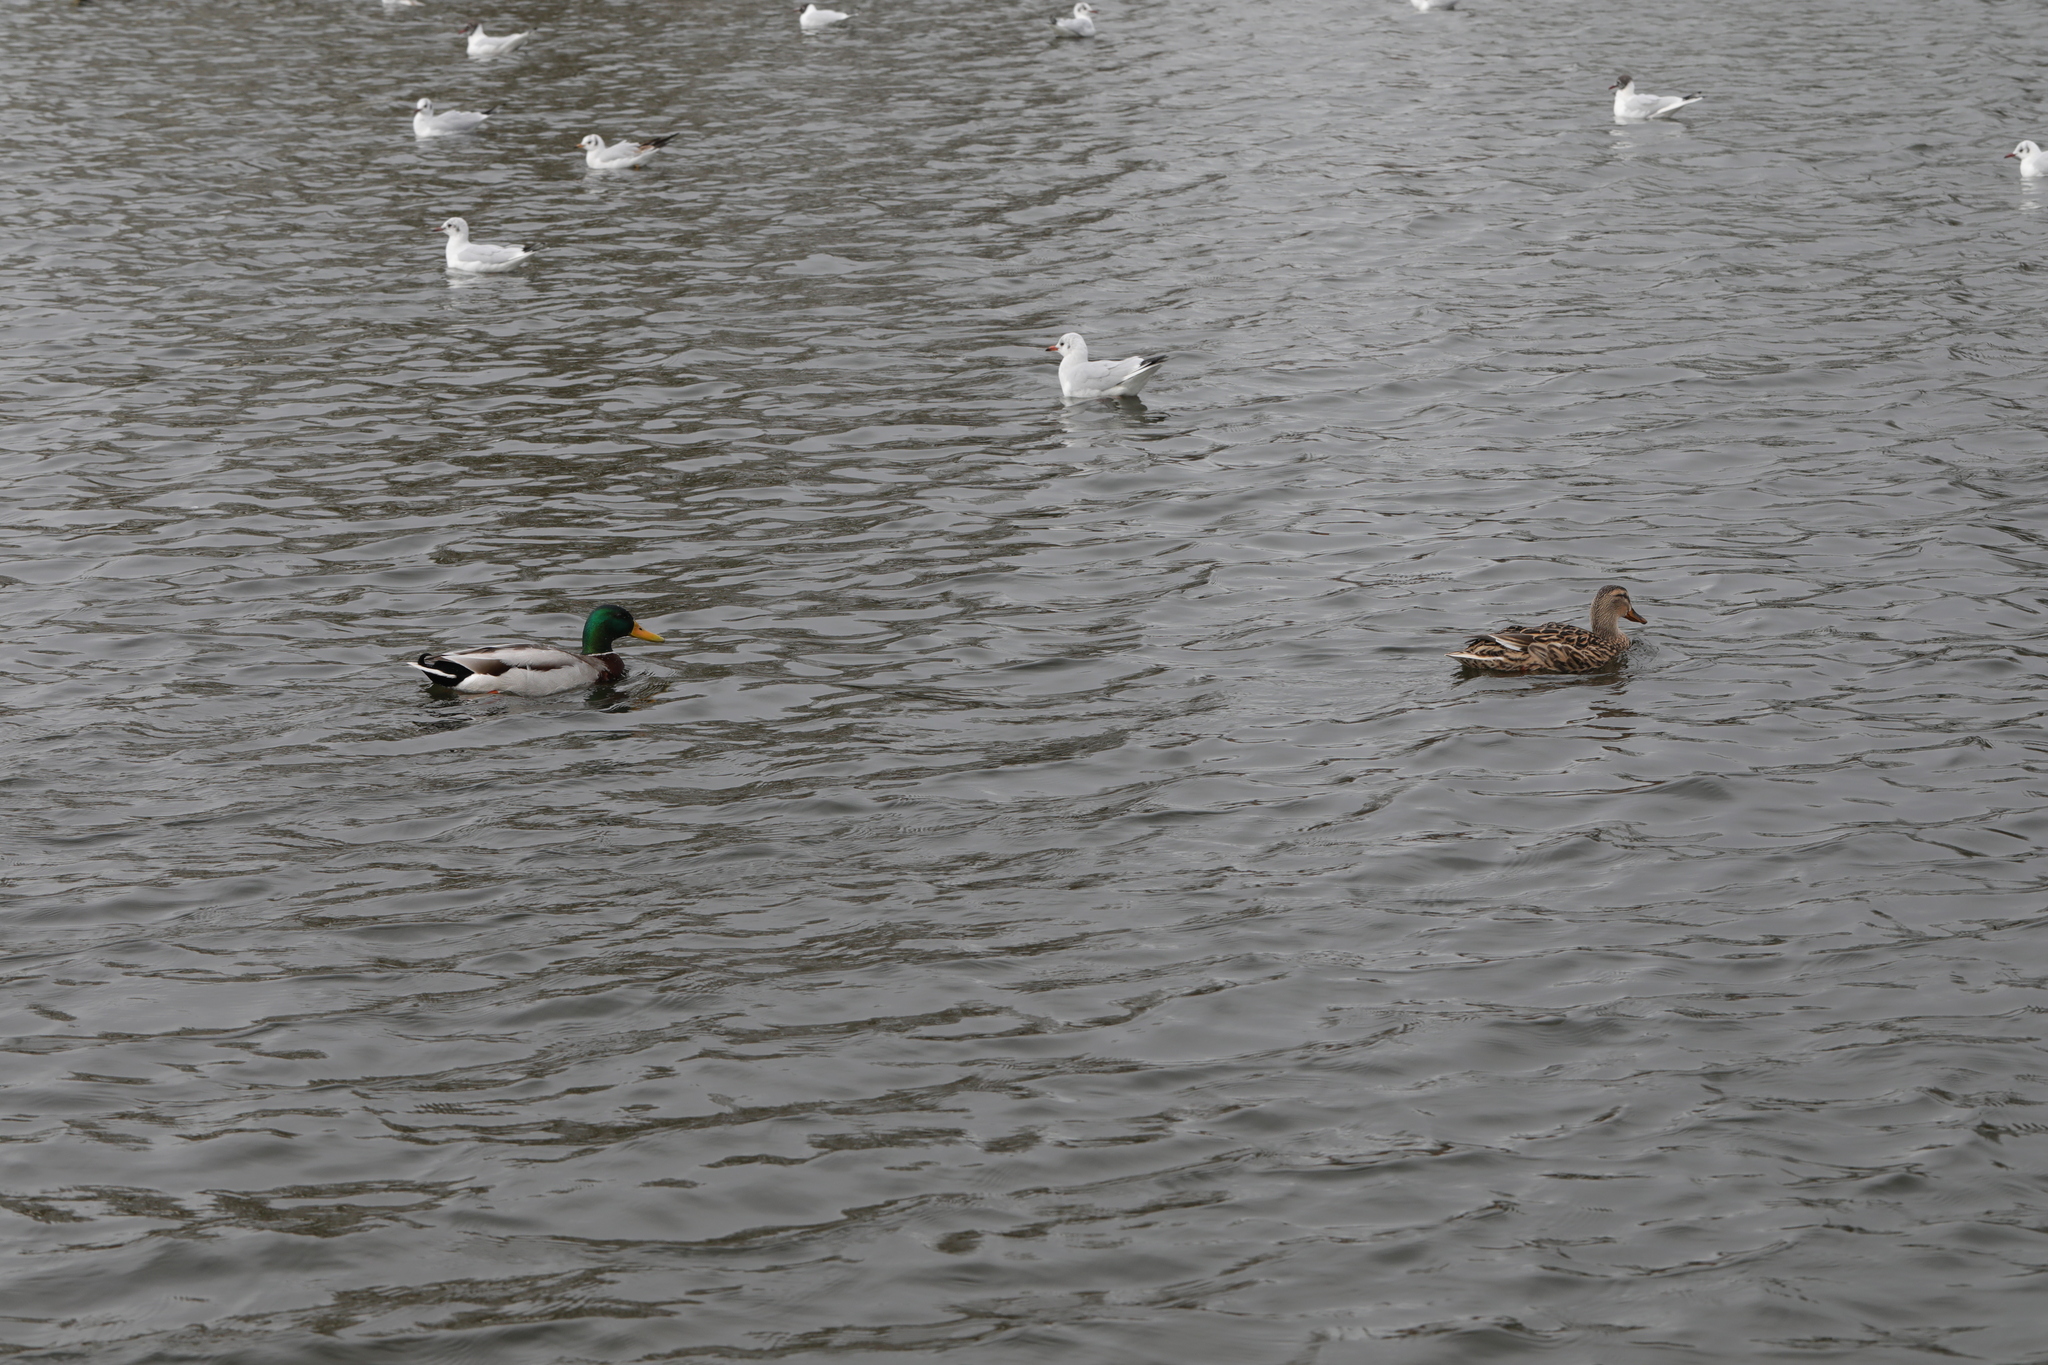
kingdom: Animalia
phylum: Chordata
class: Aves
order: Anseriformes
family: Anatidae
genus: Anas
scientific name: Anas platyrhynchos
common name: Mallard
